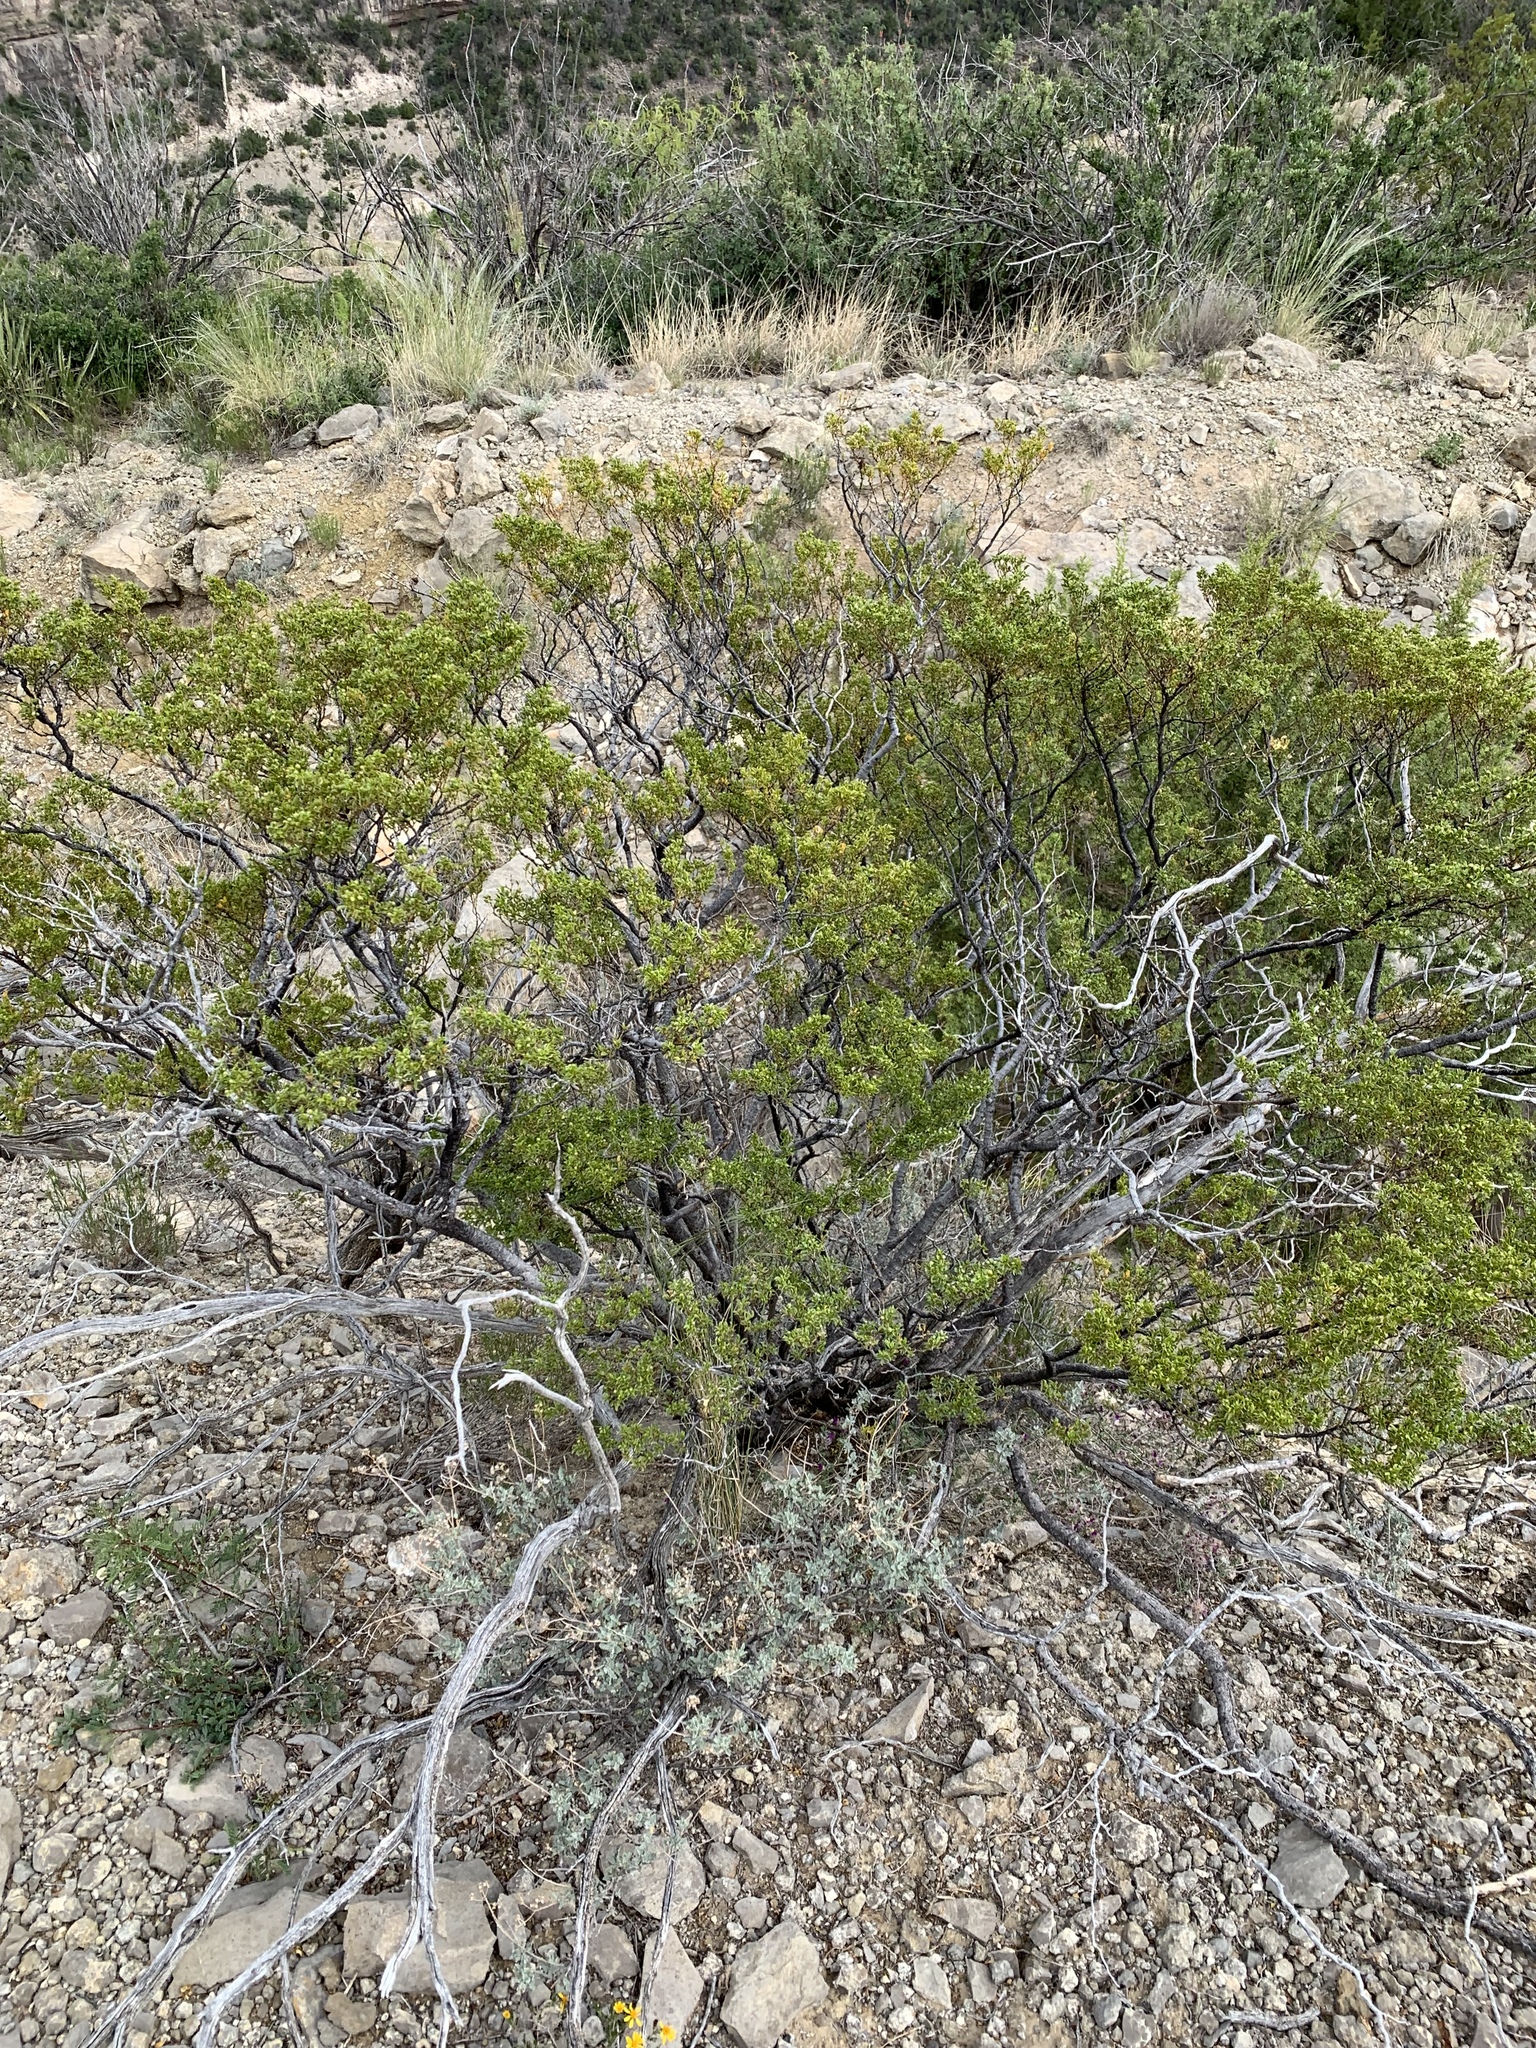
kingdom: Plantae
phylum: Tracheophyta
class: Magnoliopsida
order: Zygophyllales
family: Zygophyllaceae
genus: Larrea
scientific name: Larrea tridentata
